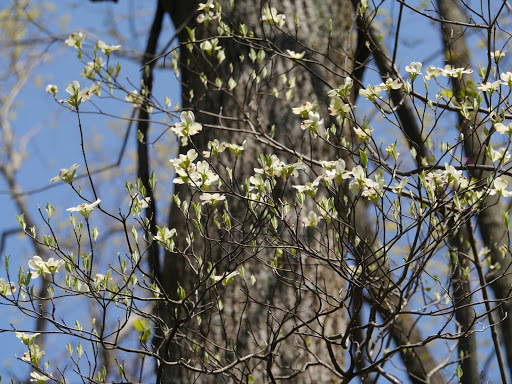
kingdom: Plantae
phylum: Tracheophyta
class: Magnoliopsida
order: Cornales
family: Cornaceae
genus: Cornus
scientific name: Cornus florida
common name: Flowering dogwood
